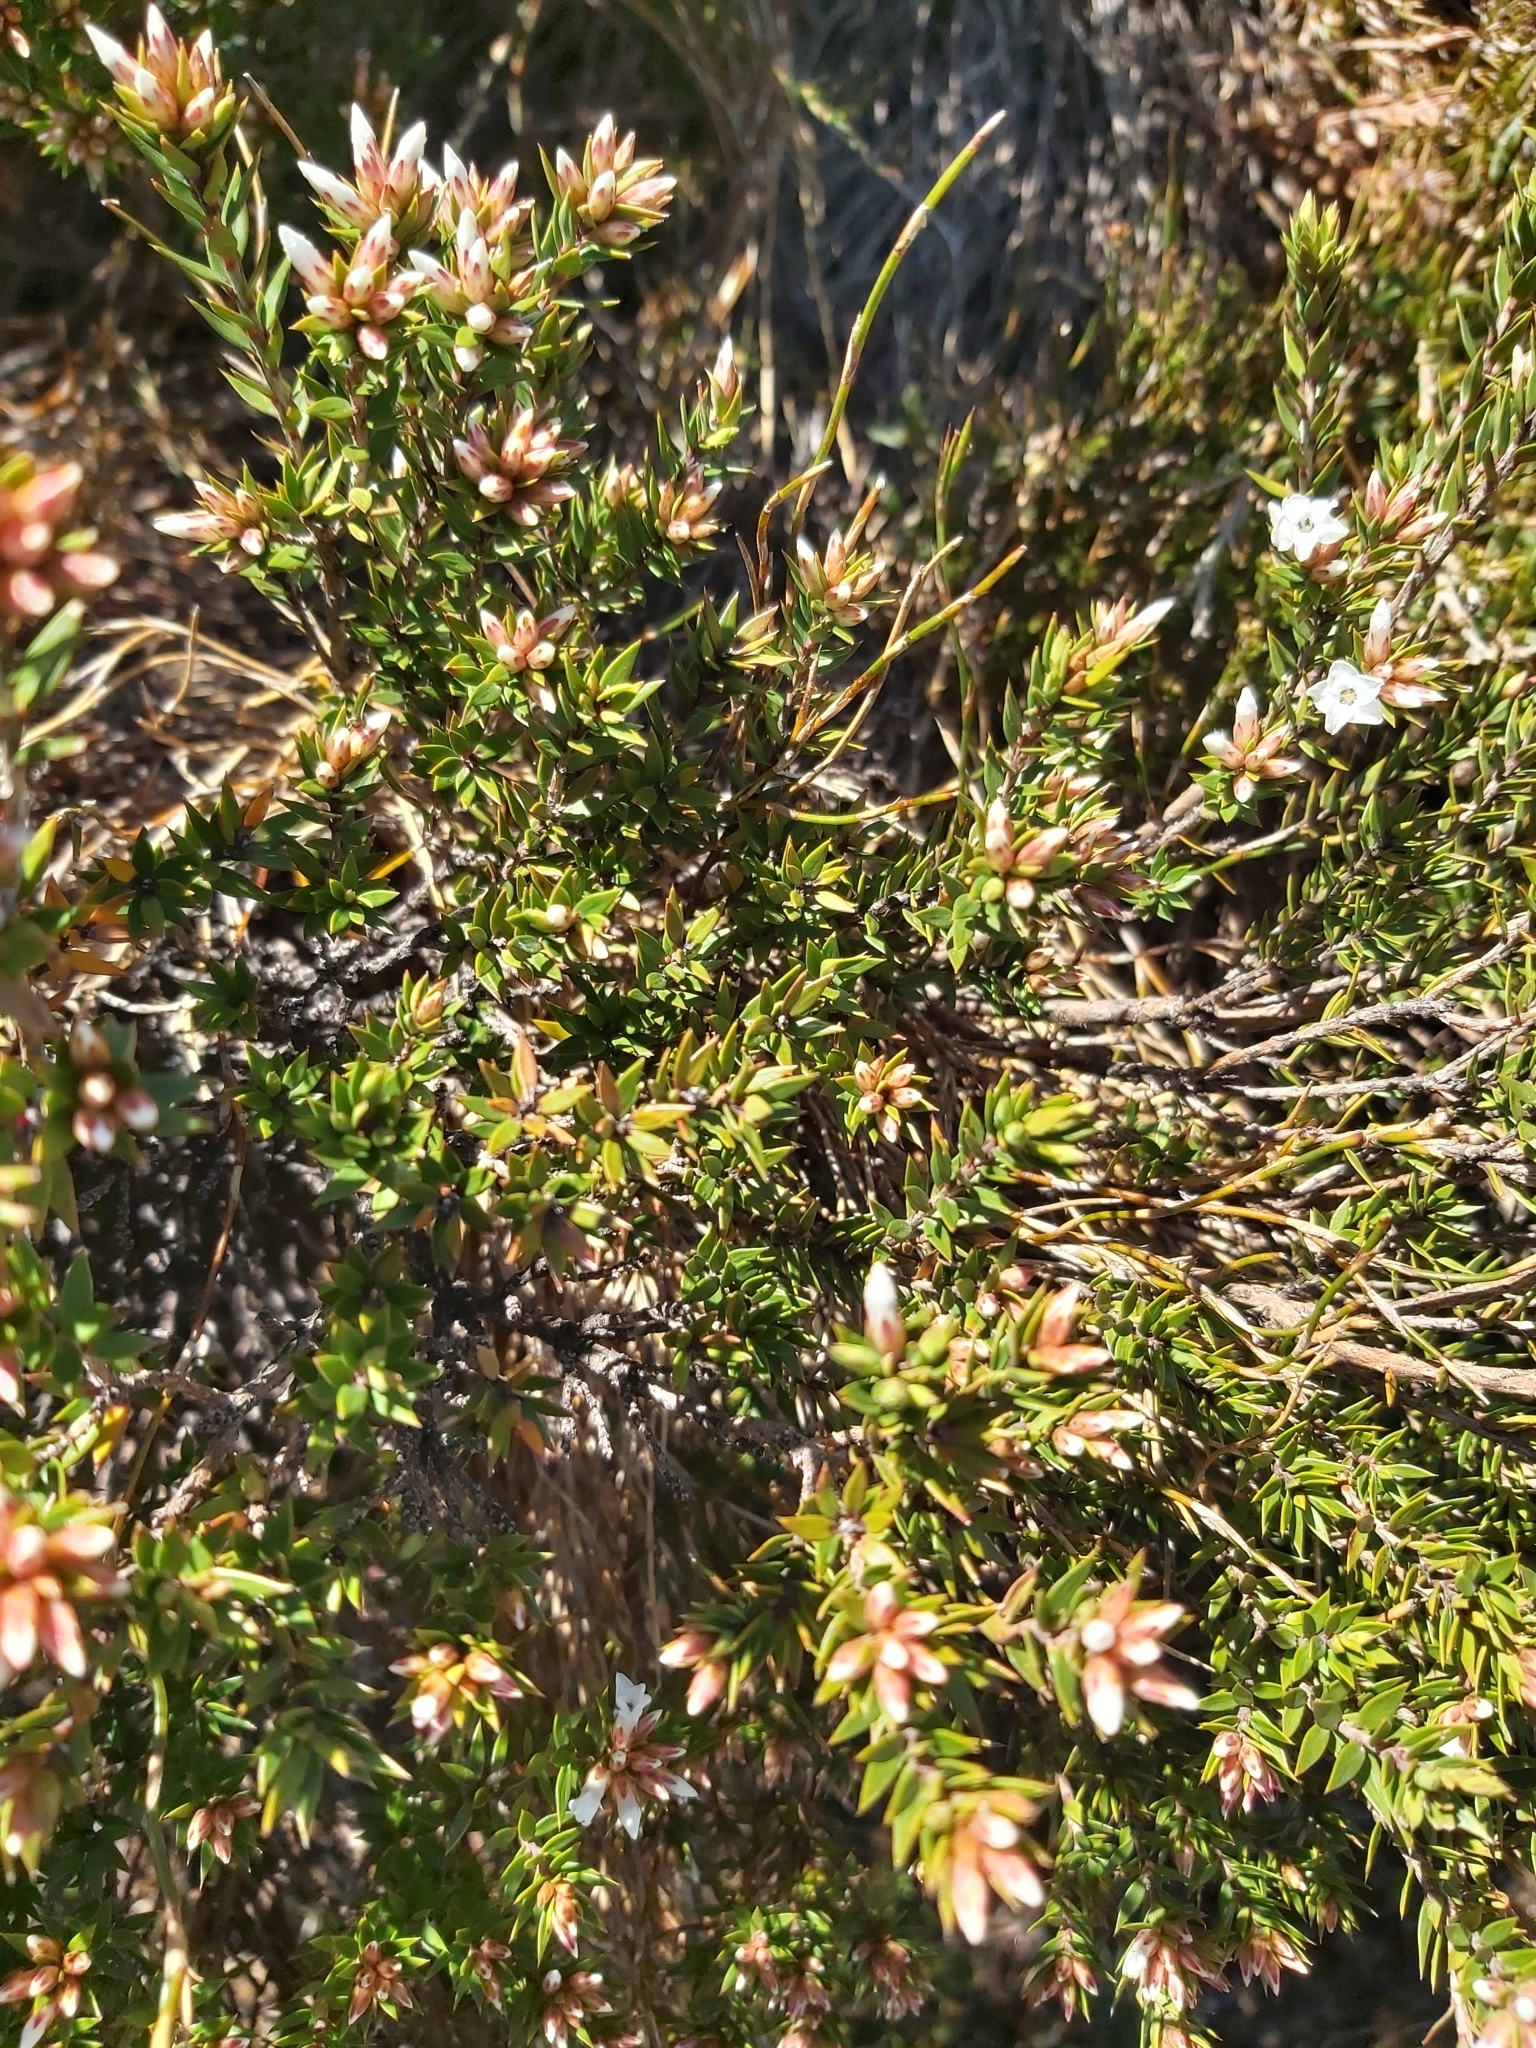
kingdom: Plantae
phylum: Tracheophyta
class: Magnoliopsida
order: Ericales
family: Ericaceae
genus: Epacris
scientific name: Epacris paludosa
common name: Swamp-heath
